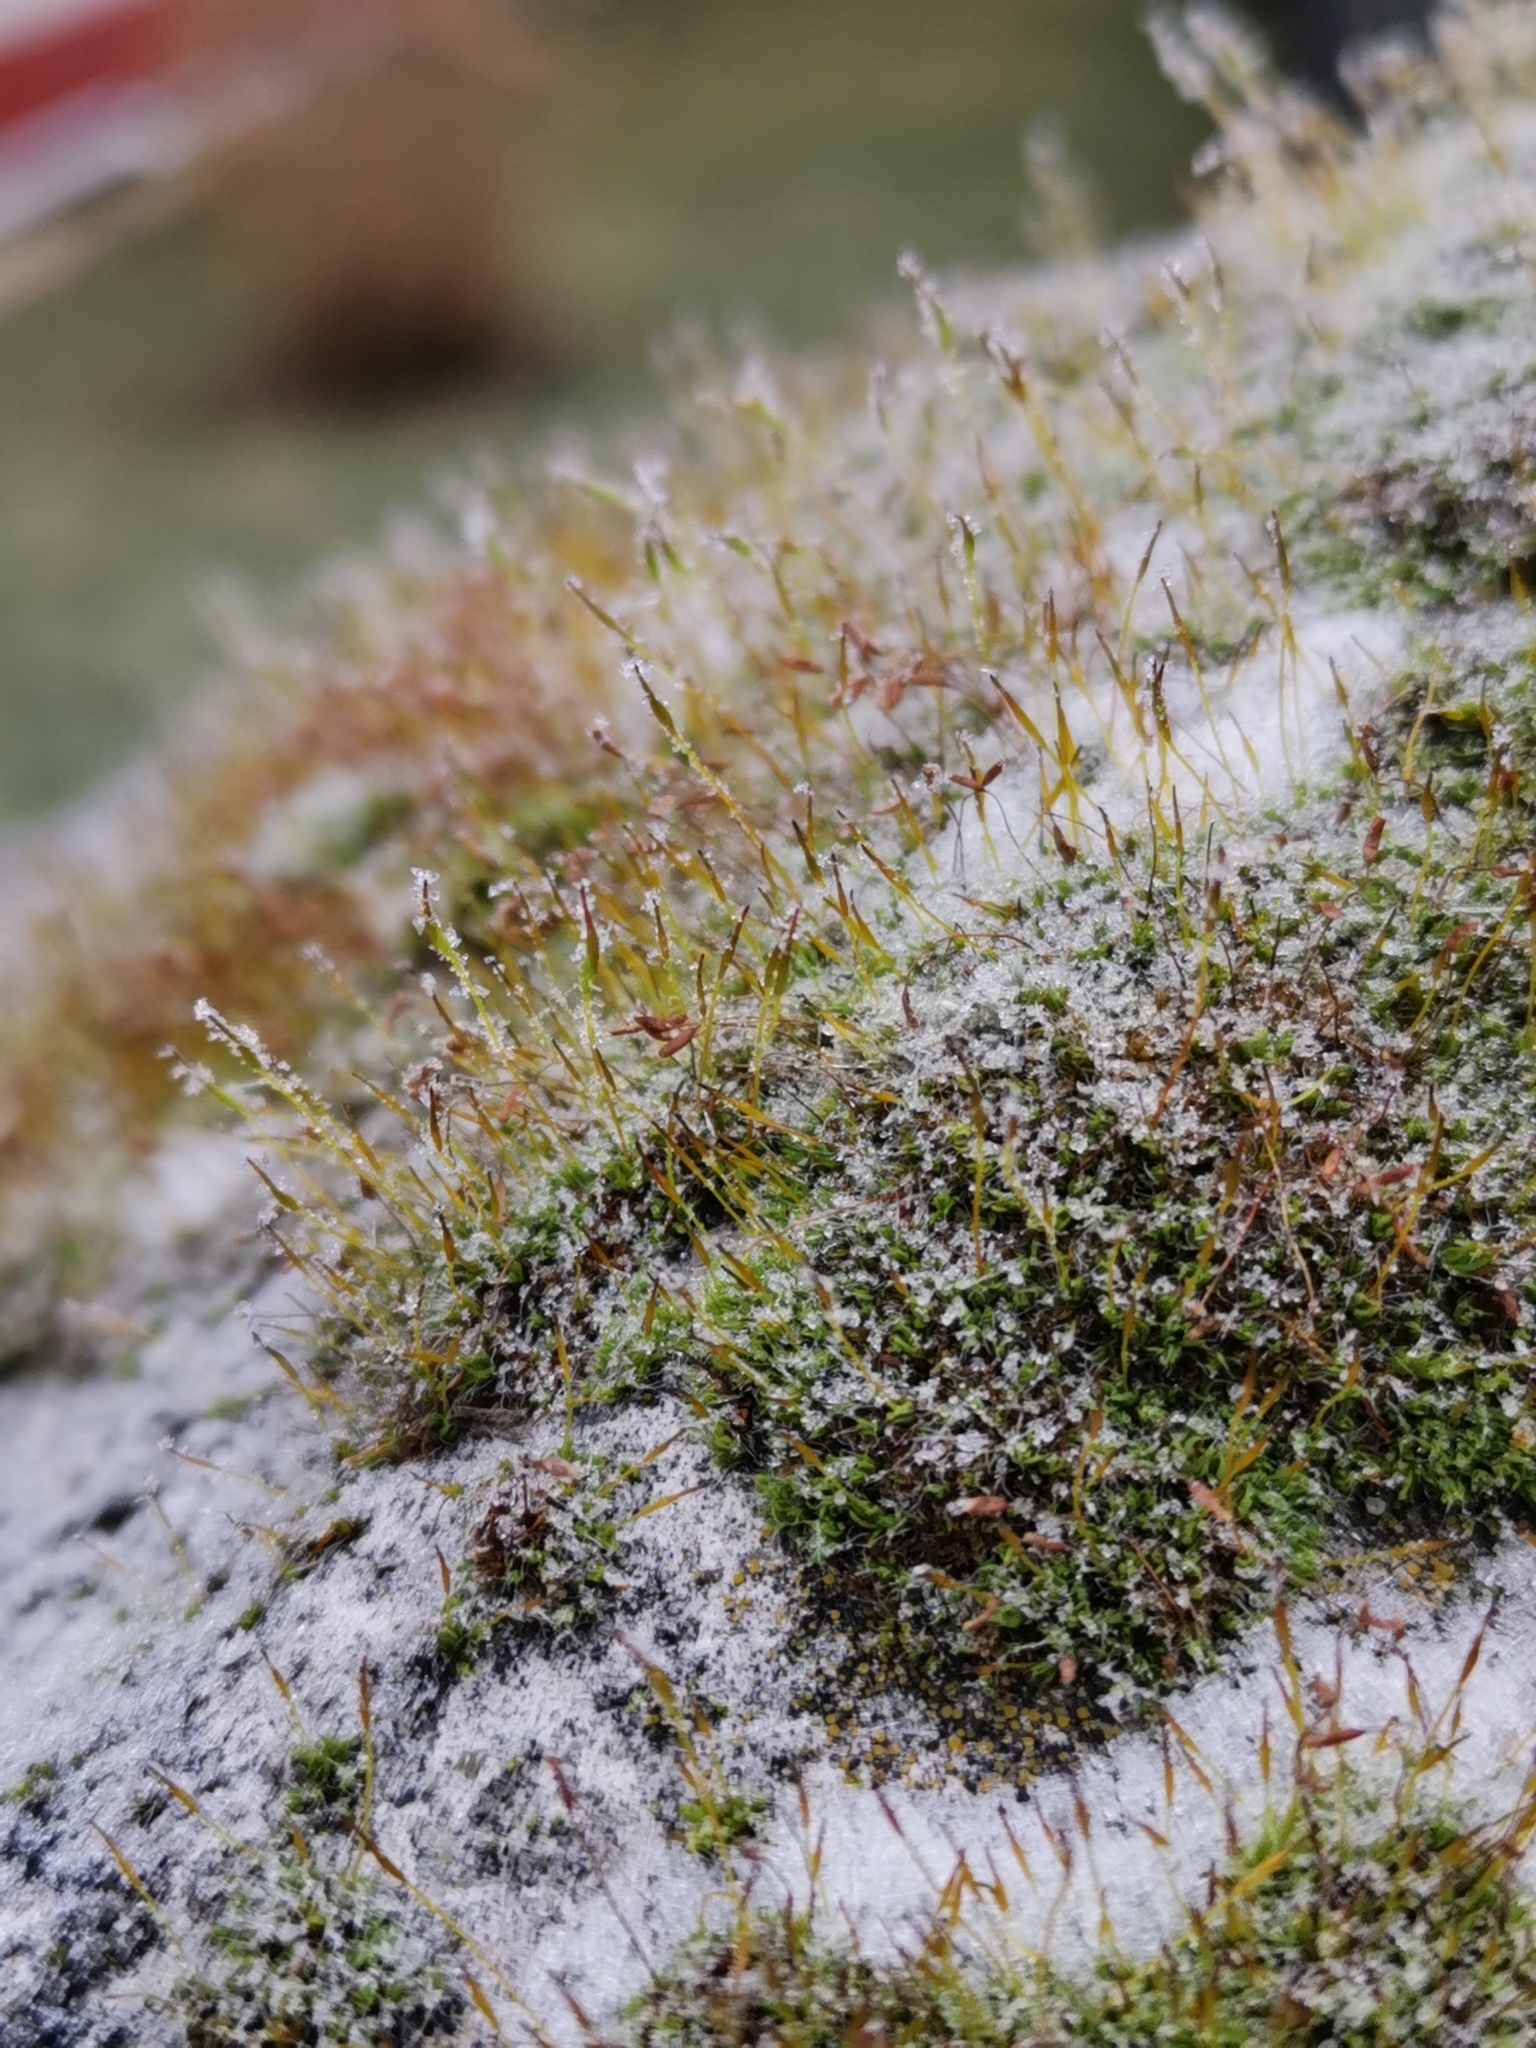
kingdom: Plantae
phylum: Bryophyta
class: Bryopsida
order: Pottiales
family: Pottiaceae
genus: Tortula
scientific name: Tortula muralis
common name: Wall screw-moss
